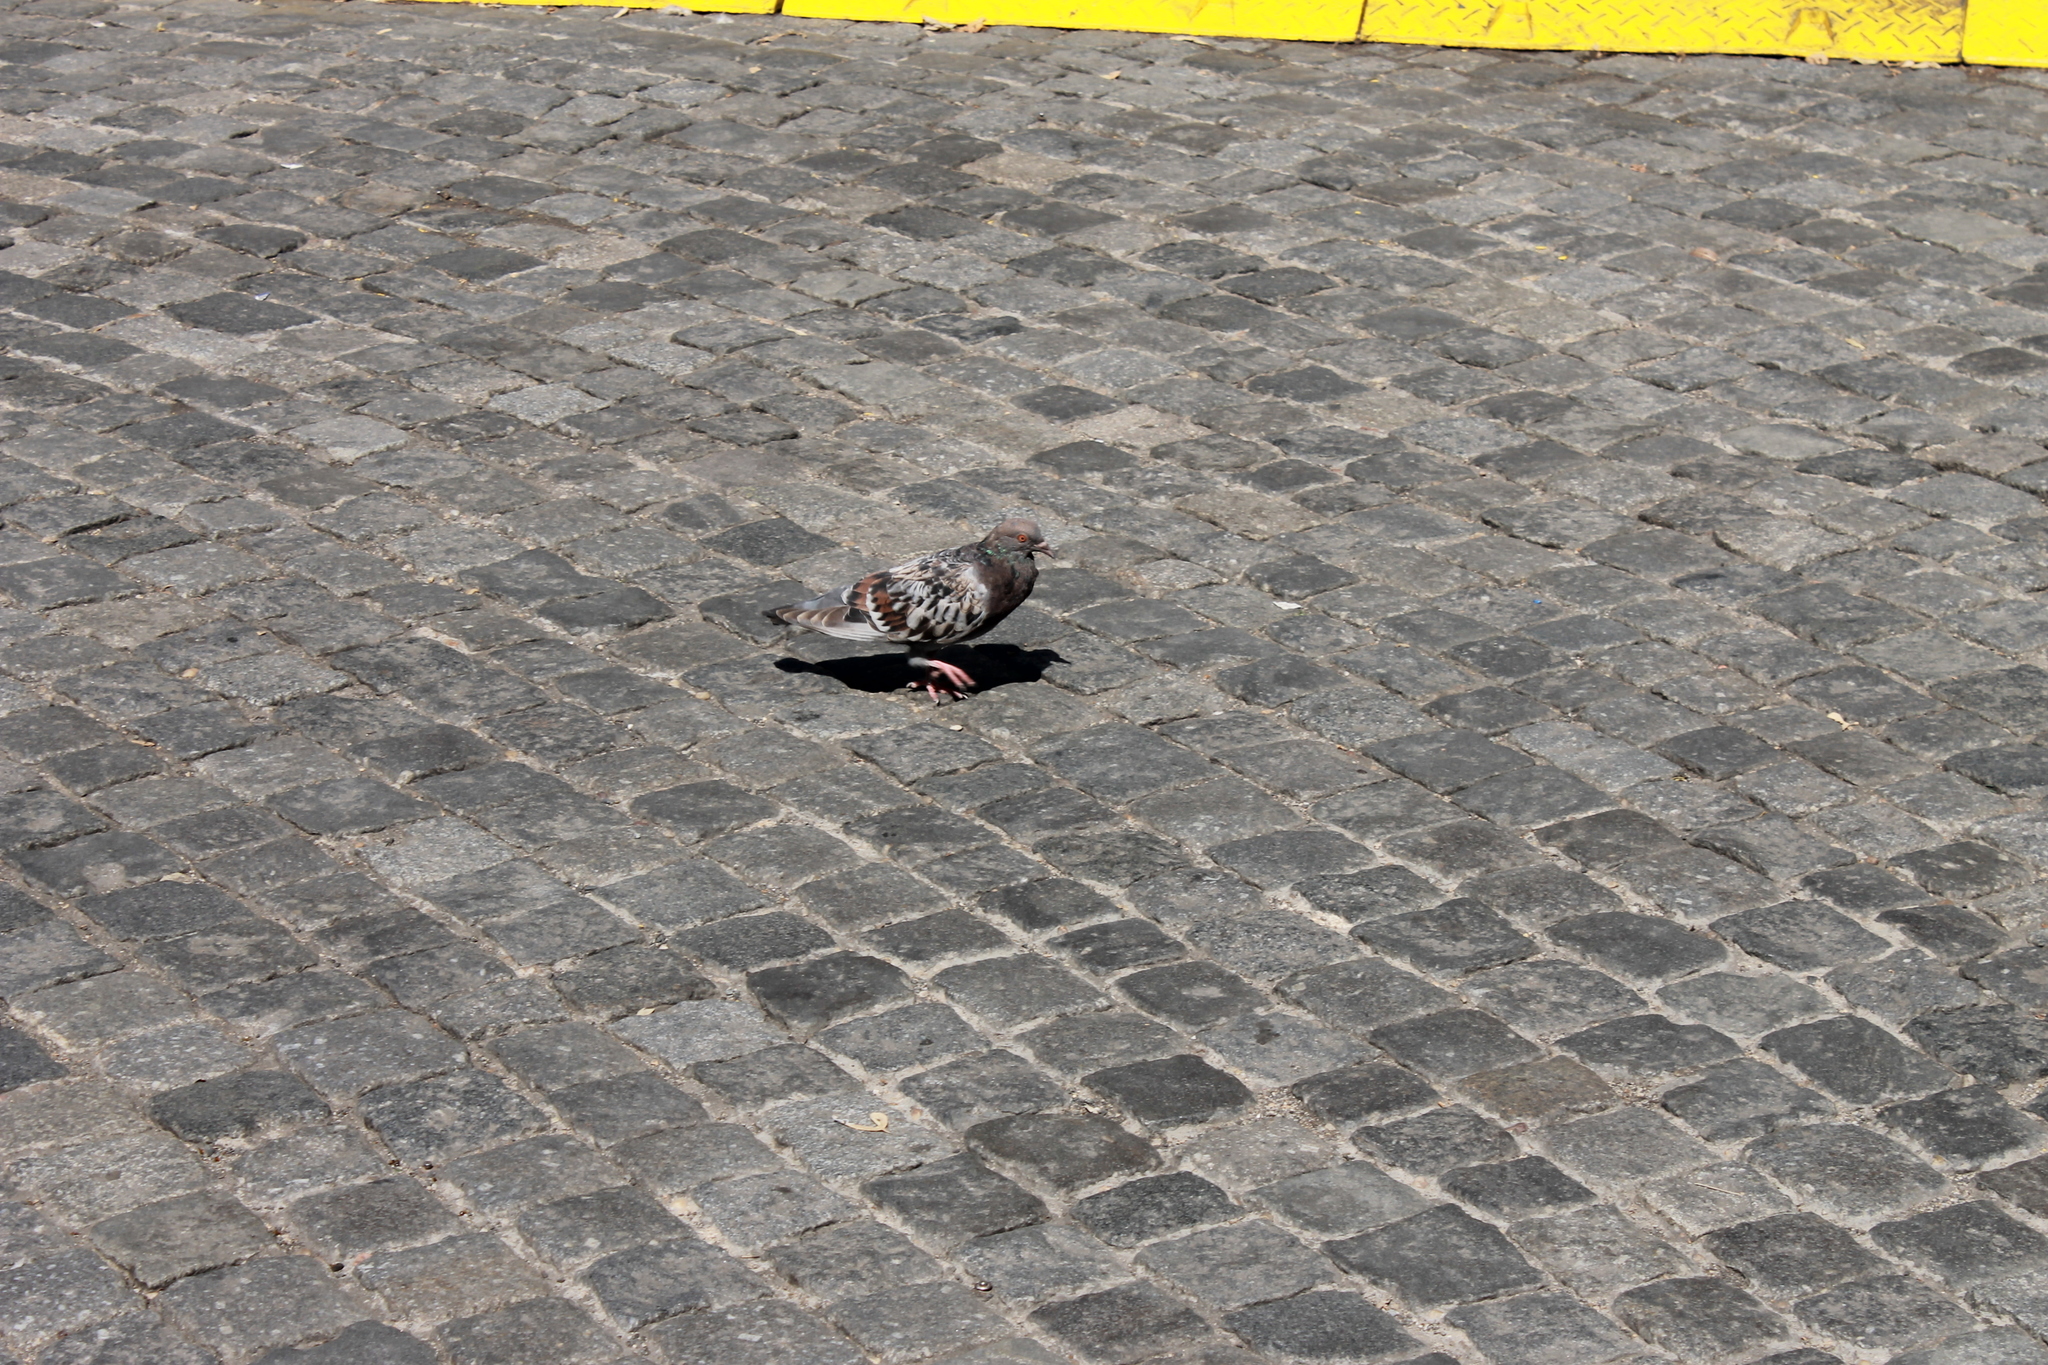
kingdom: Animalia
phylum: Chordata
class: Aves
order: Columbiformes
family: Columbidae
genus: Columba
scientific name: Columba livia
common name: Rock pigeon
